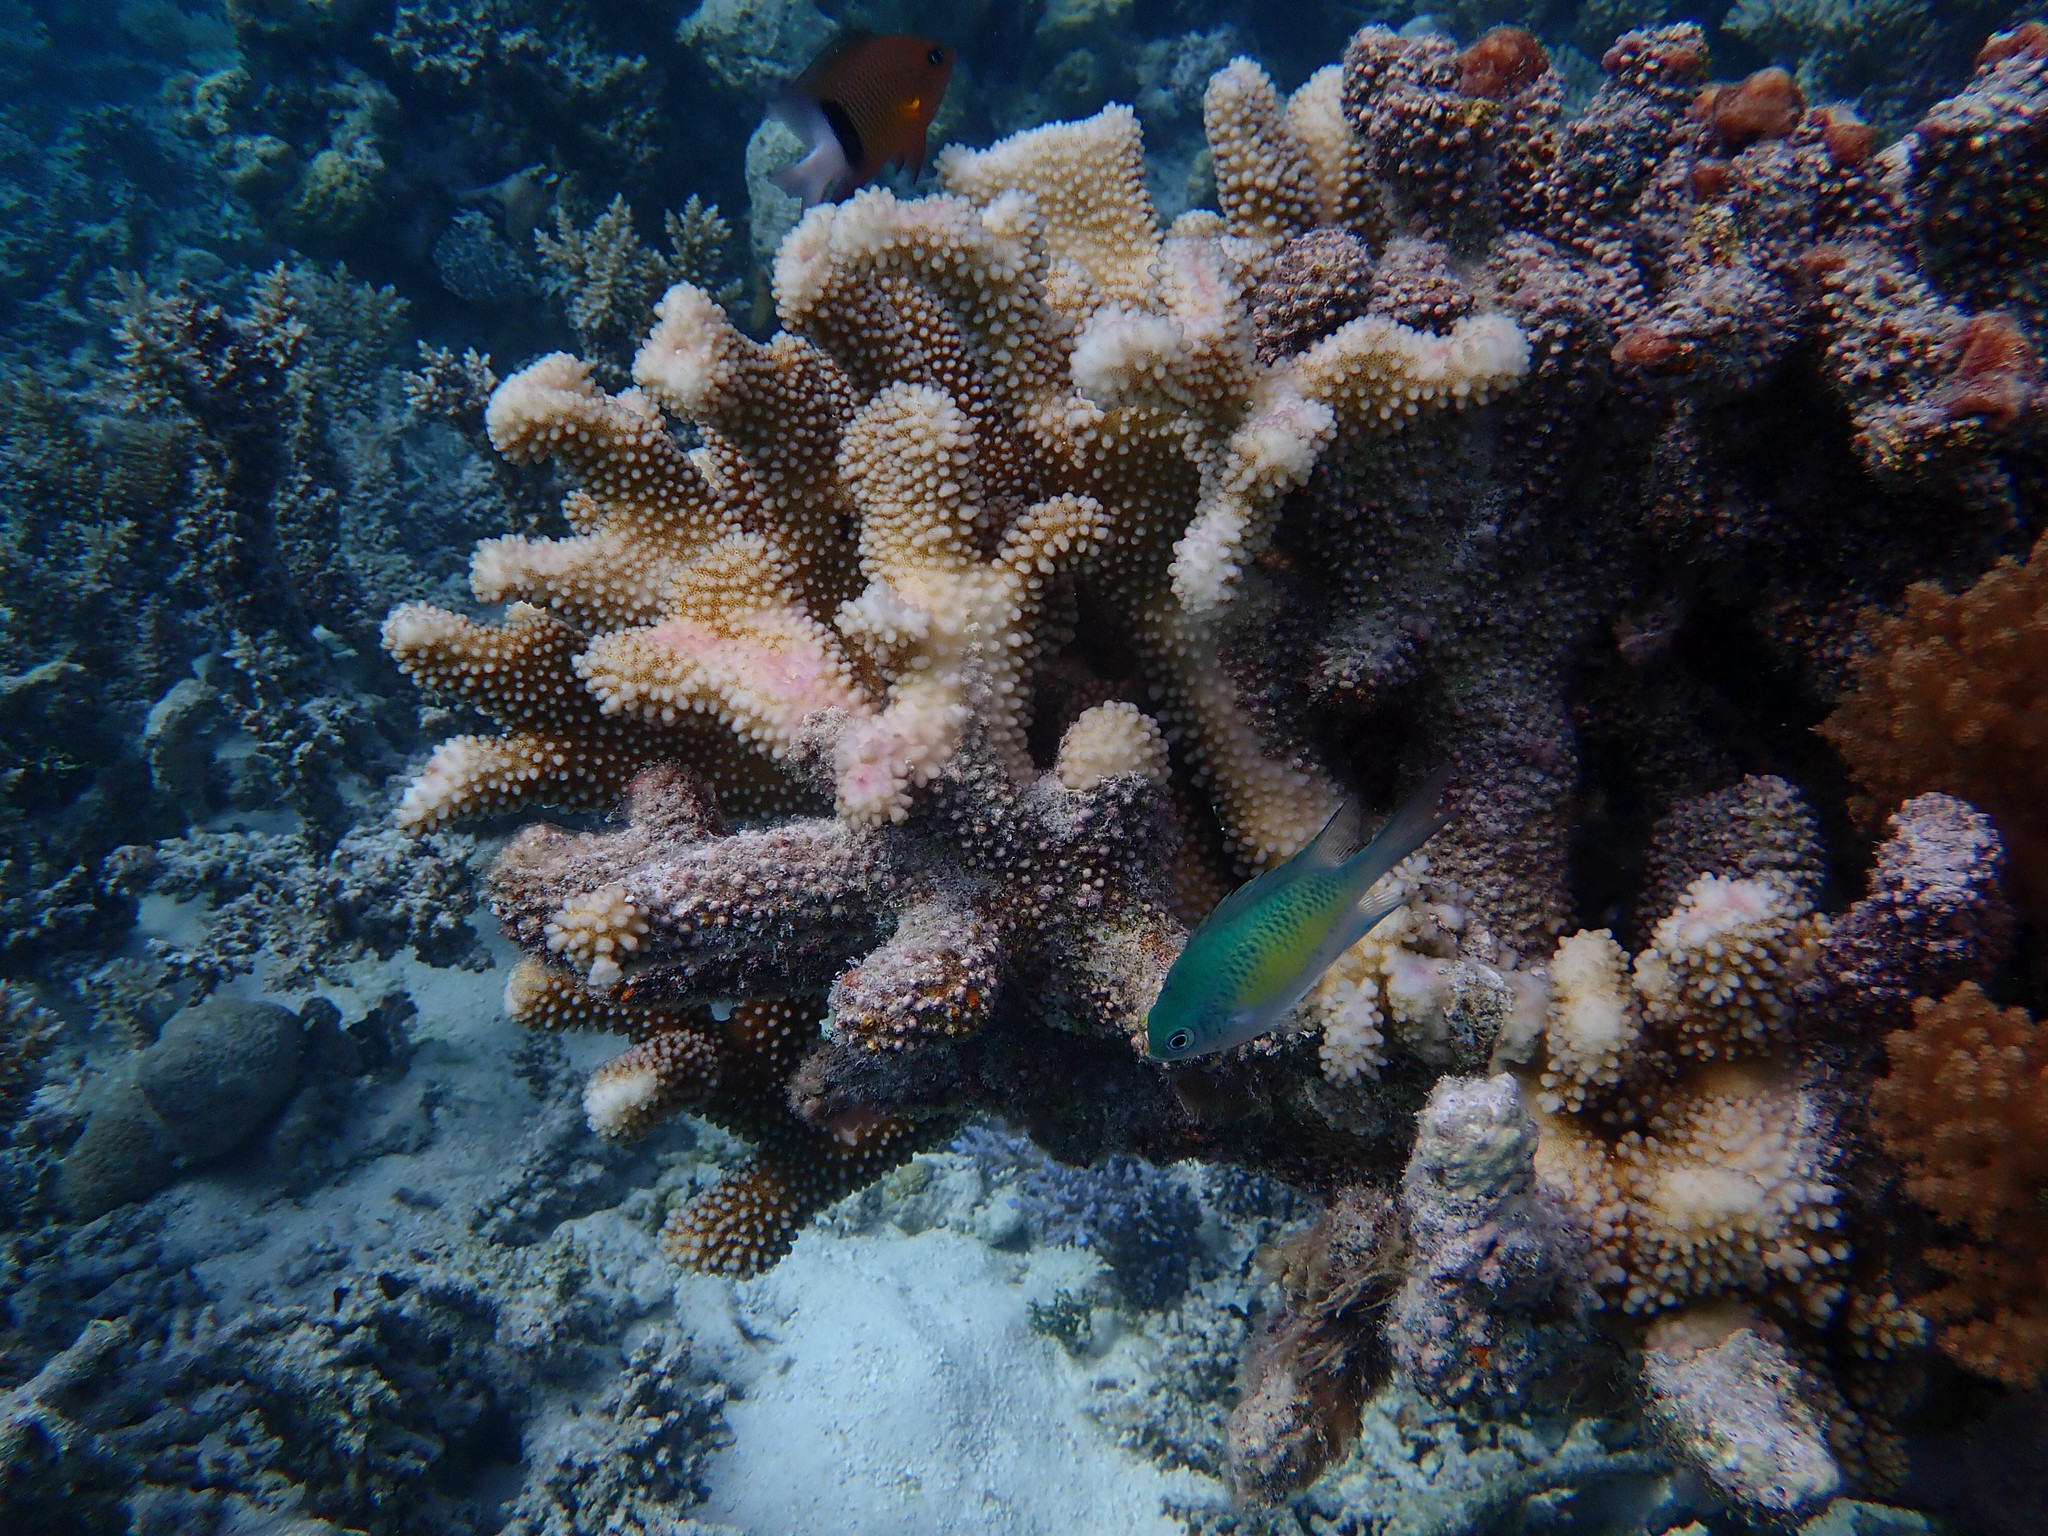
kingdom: Animalia
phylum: Cnidaria
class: Anthozoa
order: Scleractinia
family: Pocilloporidae
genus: Pocillopora
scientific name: Pocillopora grandis
